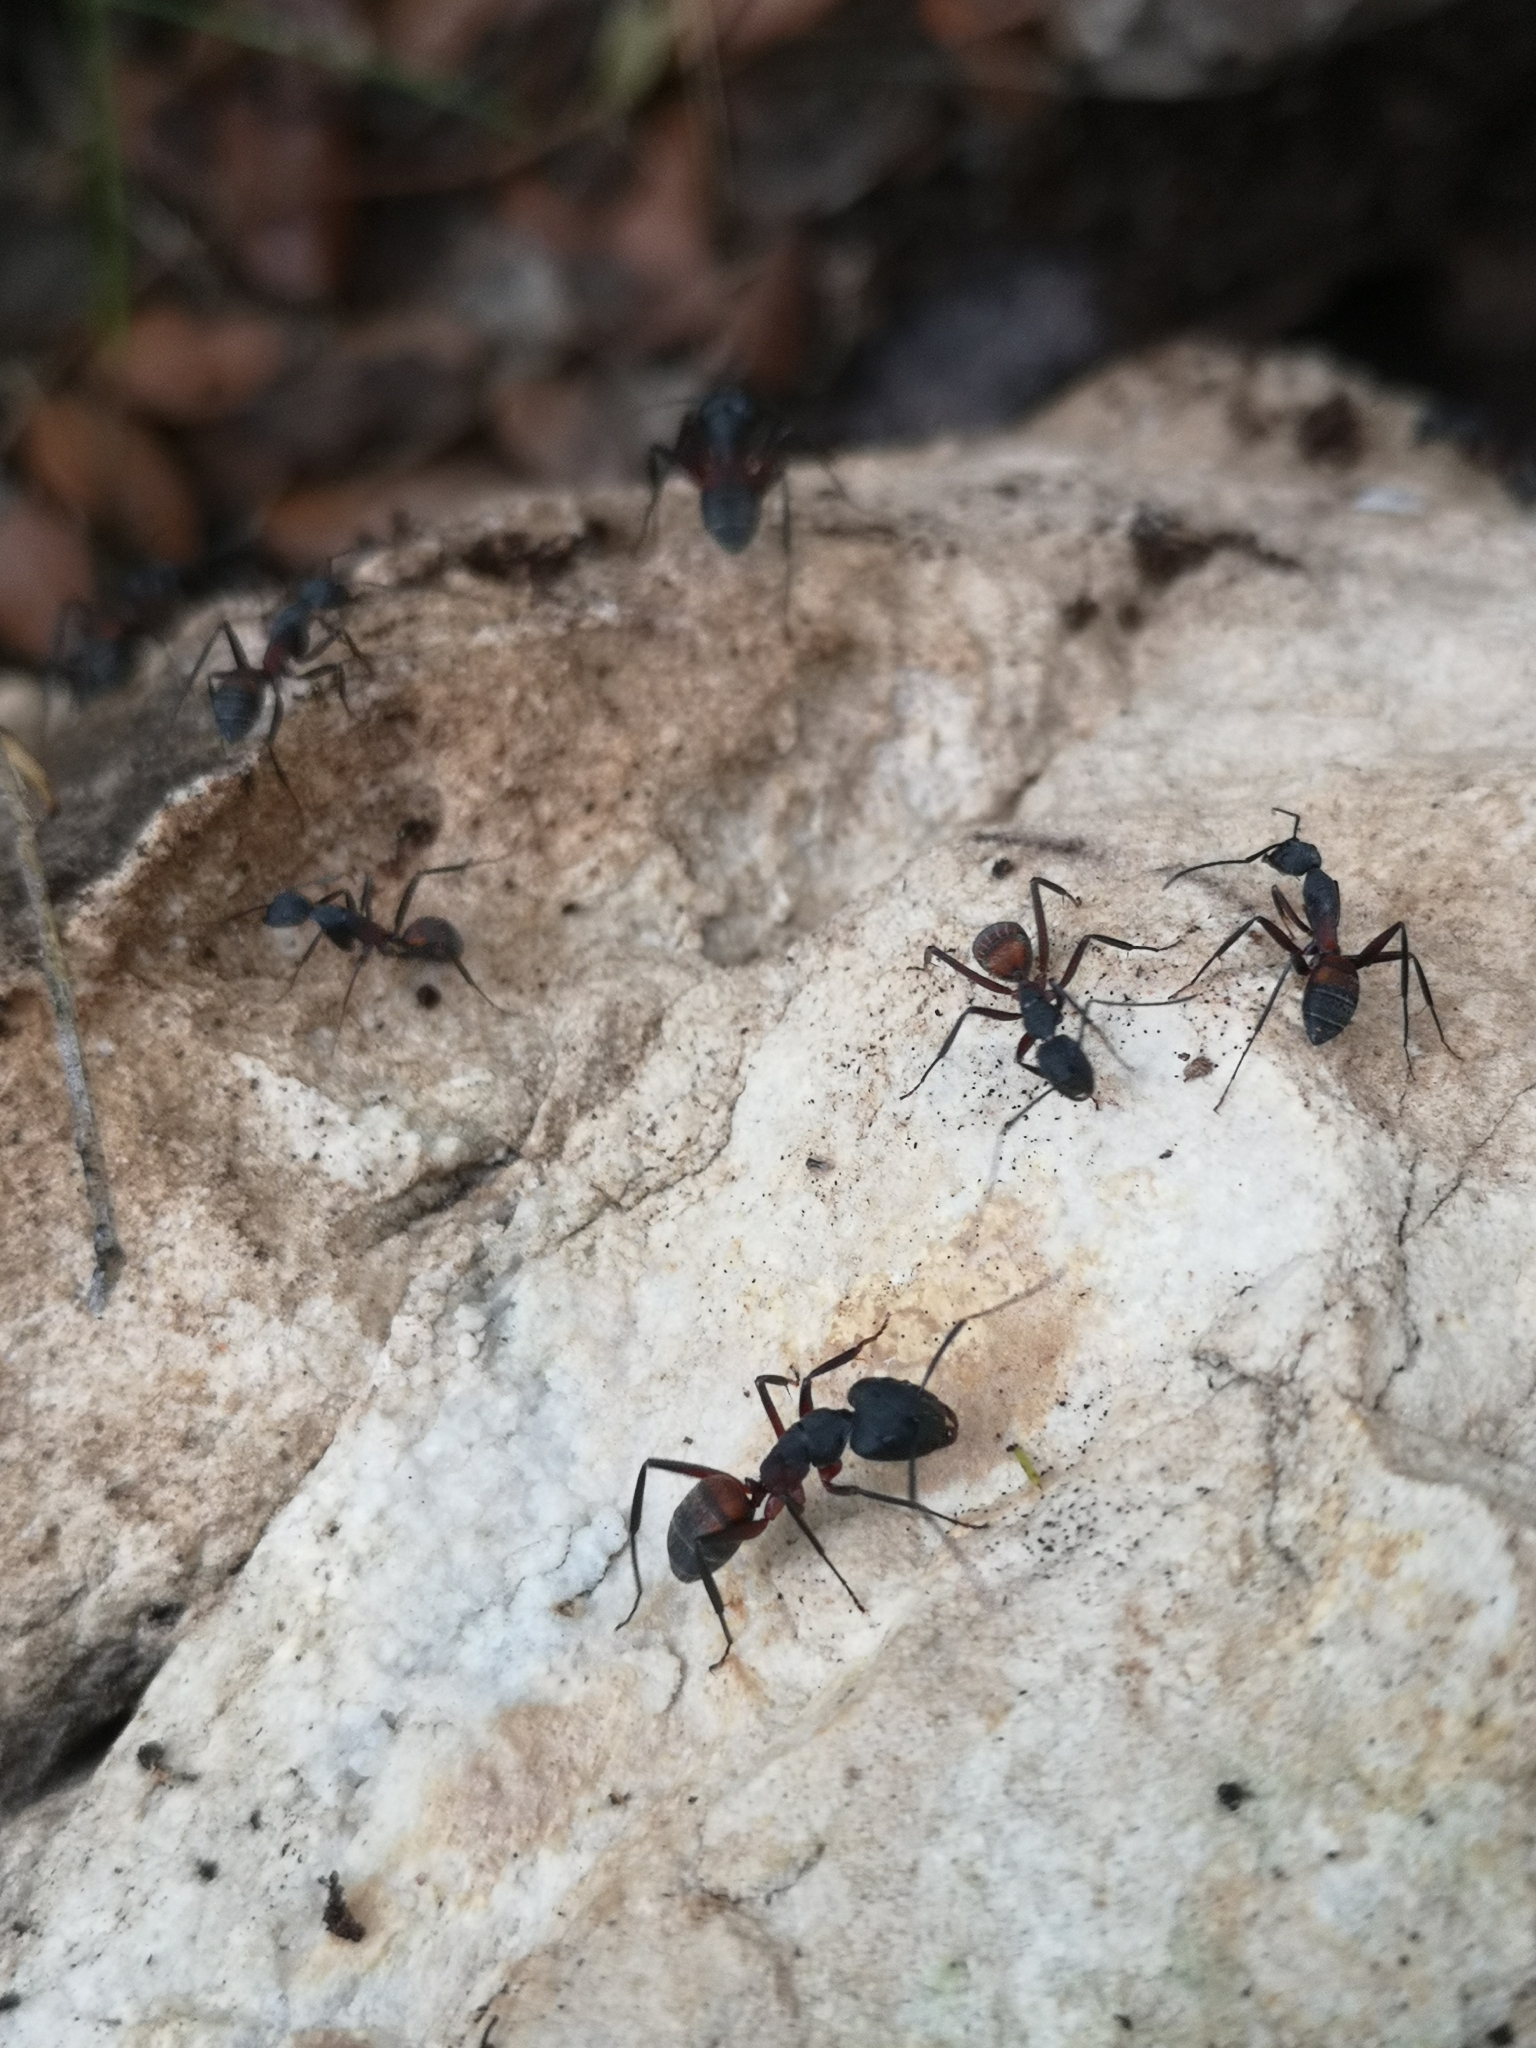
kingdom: Animalia
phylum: Arthropoda
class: Insecta
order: Hymenoptera
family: Formicidae
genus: Camponotus
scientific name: Camponotus cruentatus
